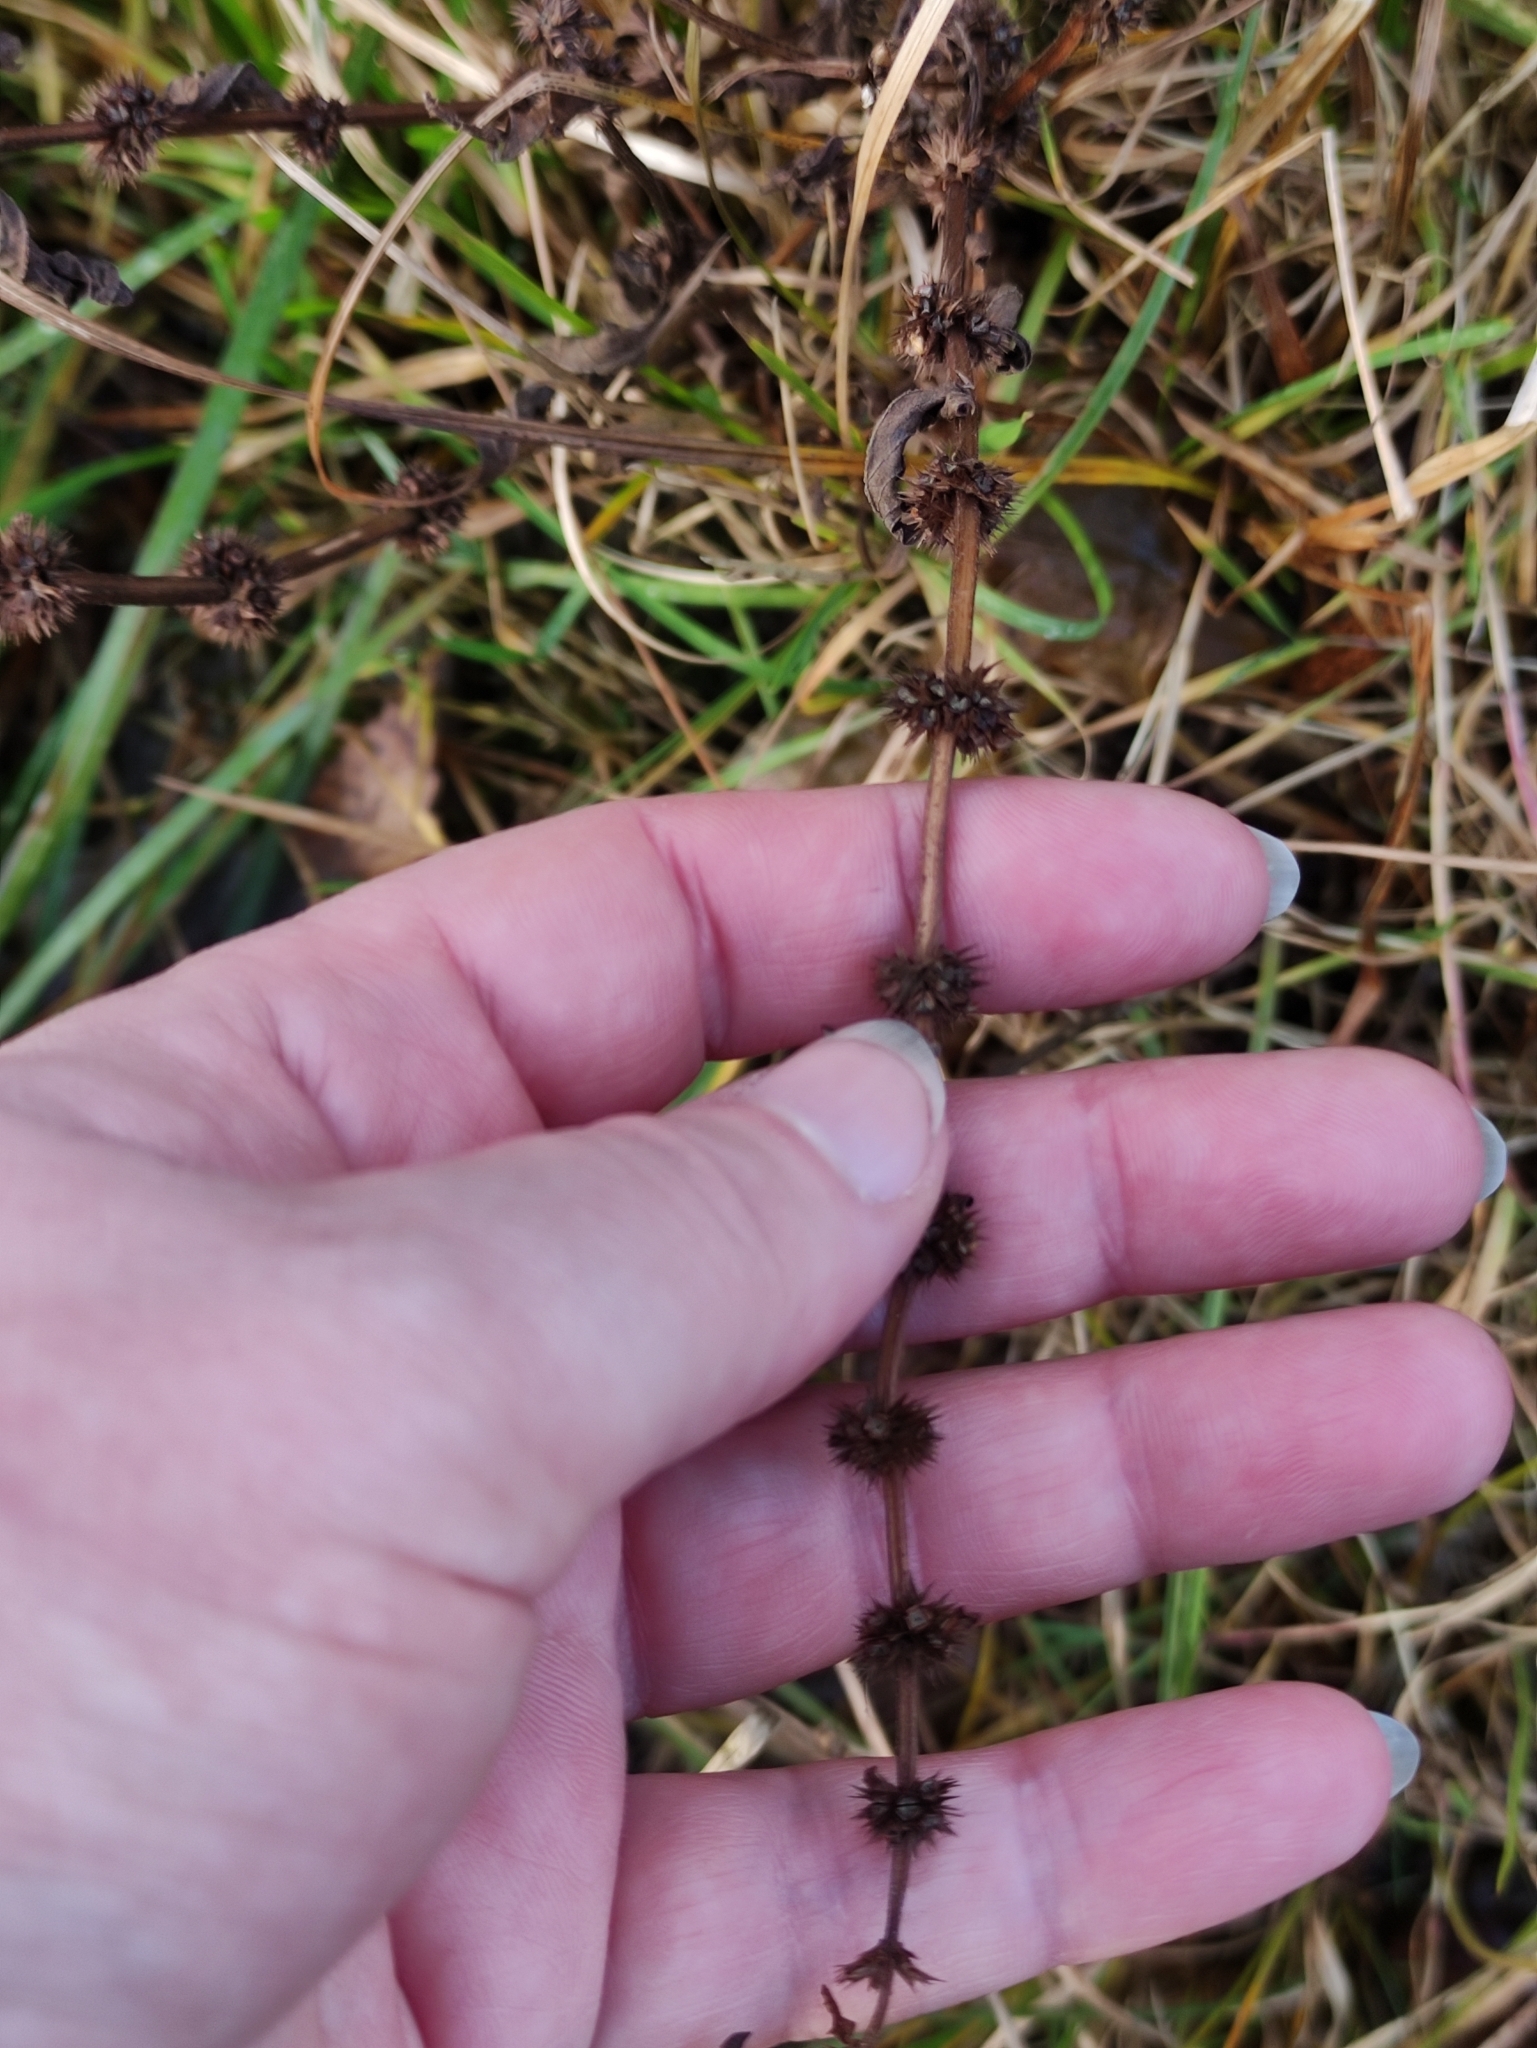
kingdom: Plantae
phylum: Tracheophyta
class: Magnoliopsida
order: Lamiales
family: Lamiaceae
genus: Lycopus
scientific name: Lycopus europaeus
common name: European bugleweed
